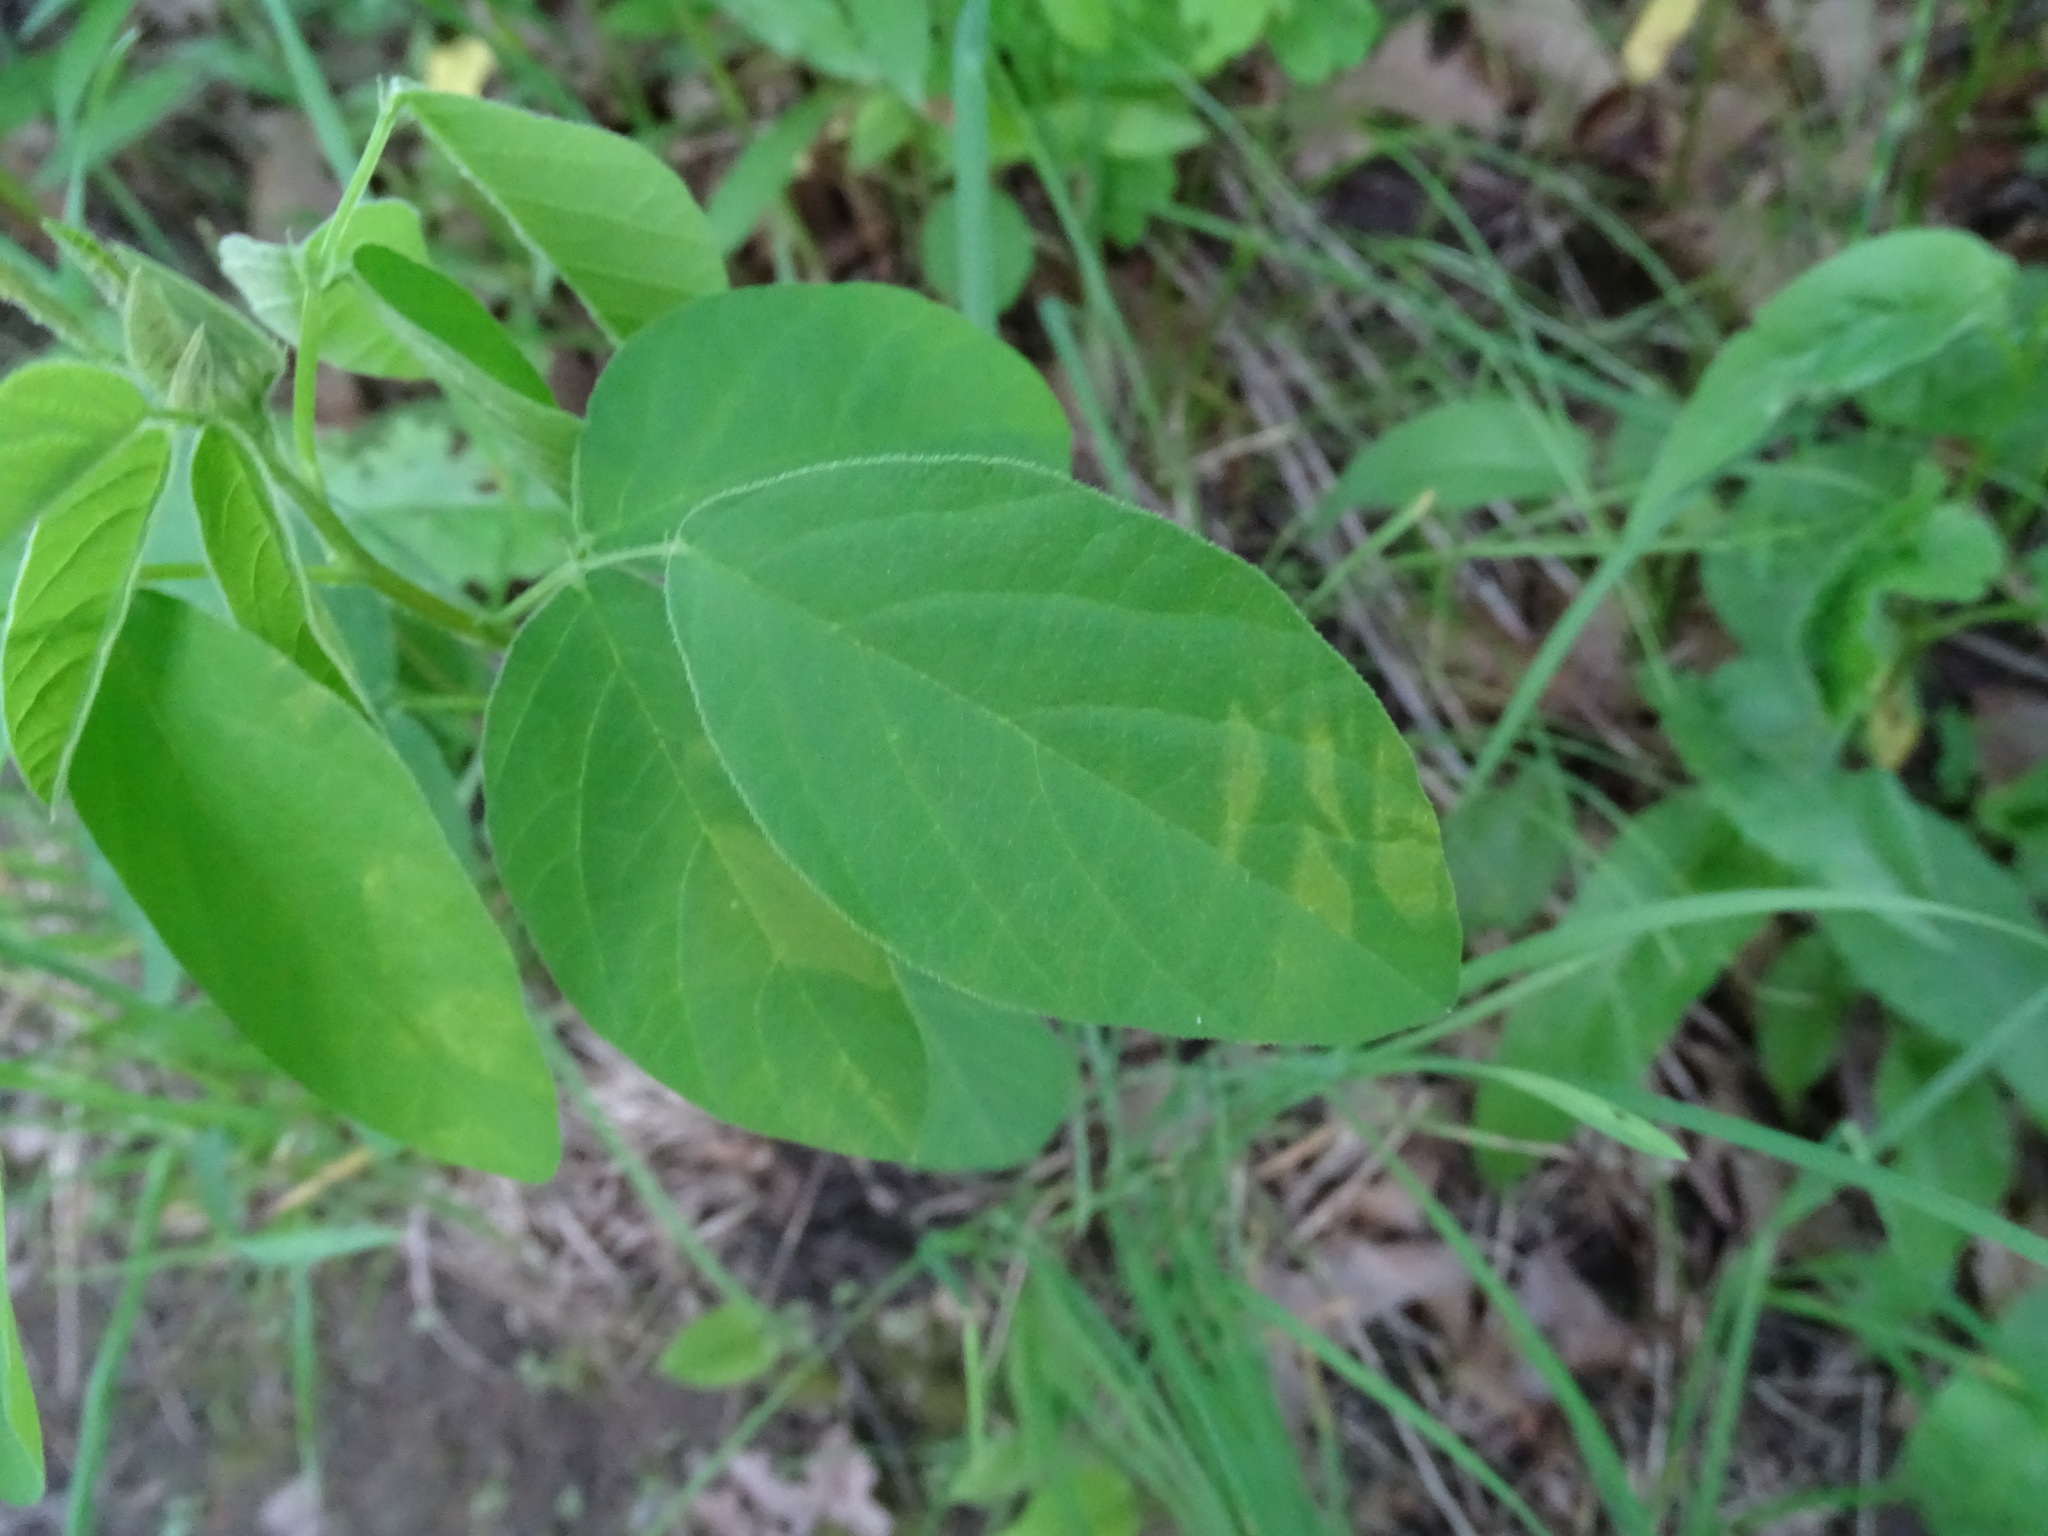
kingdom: Plantae
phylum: Tracheophyta
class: Magnoliopsida
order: Fabales
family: Fabaceae
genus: Desmodium
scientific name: Desmodium canadense
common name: Canada tick-trefoil
